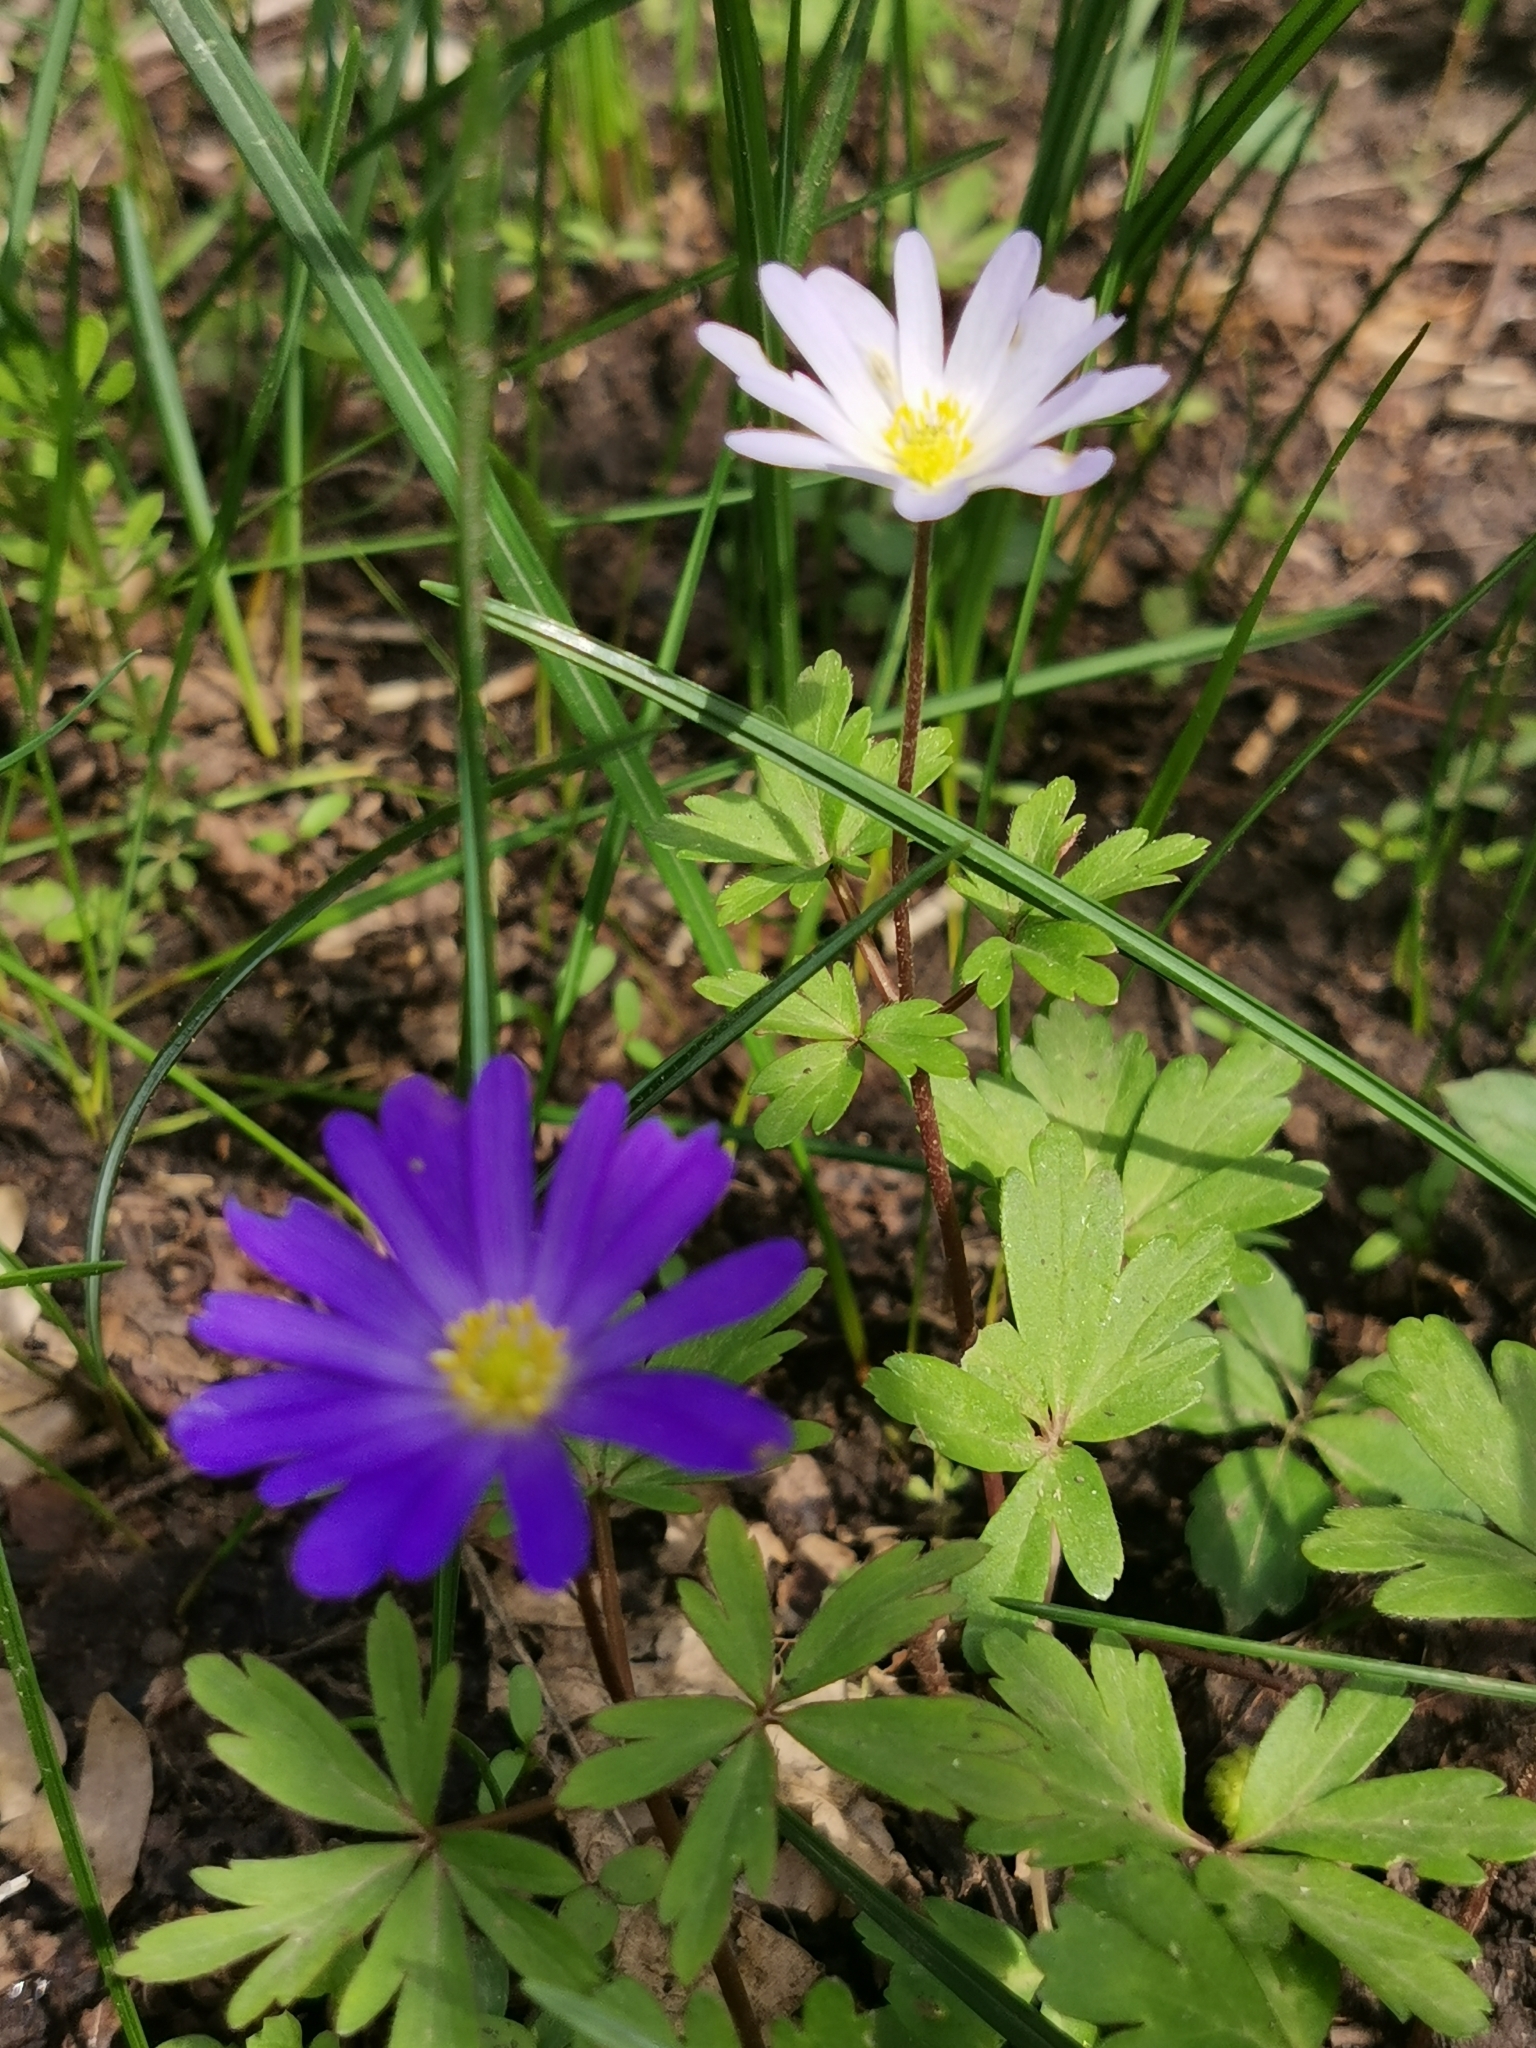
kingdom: Plantae
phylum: Tracheophyta
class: Magnoliopsida
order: Ranunculales
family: Ranunculaceae
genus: Anemone
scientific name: Anemone blanda
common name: Balkan anemone
